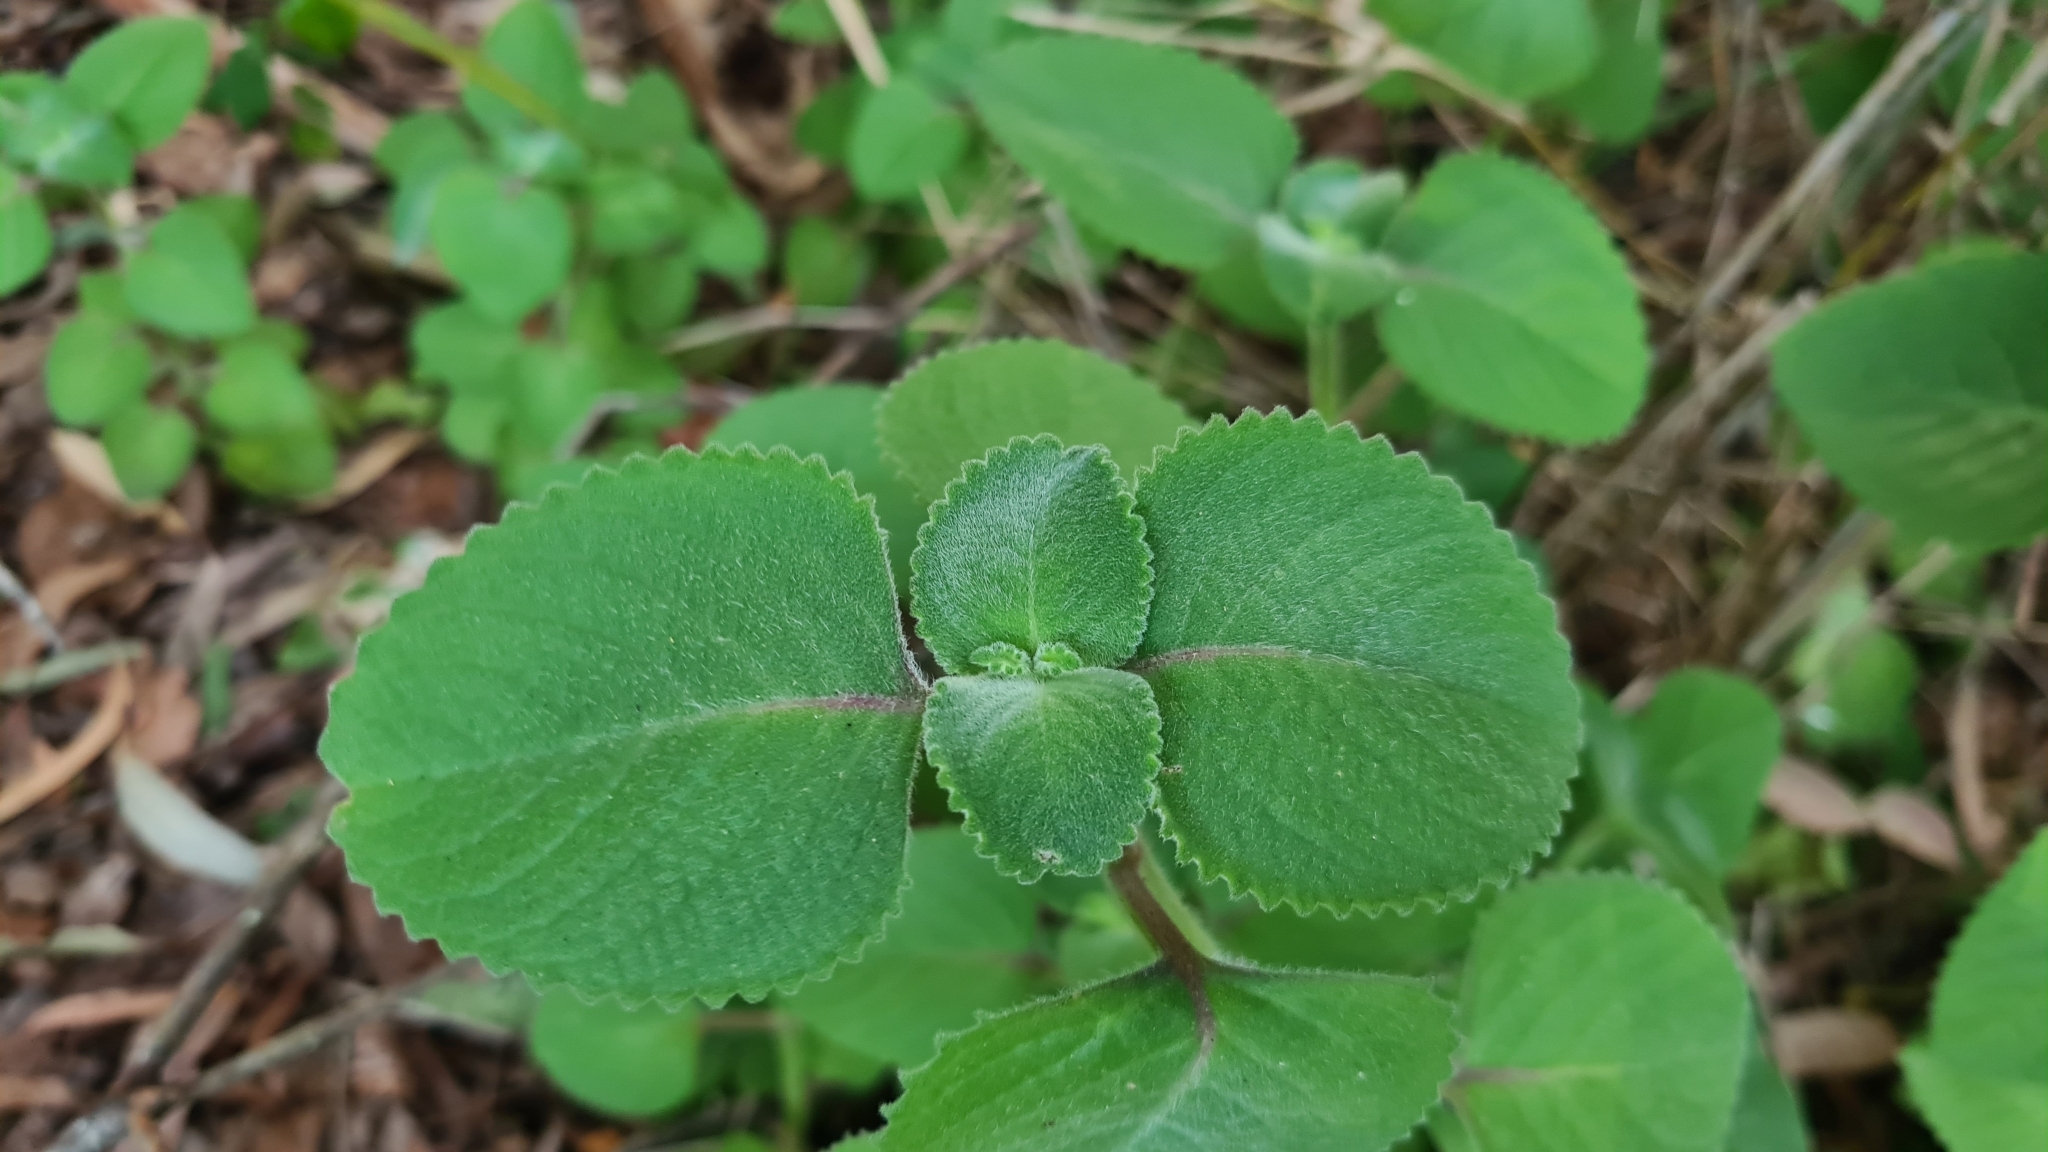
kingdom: Plantae
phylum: Tracheophyta
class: Magnoliopsida
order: Lamiales
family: Lamiaceae
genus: Coleus
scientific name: Coleus amboinicus
